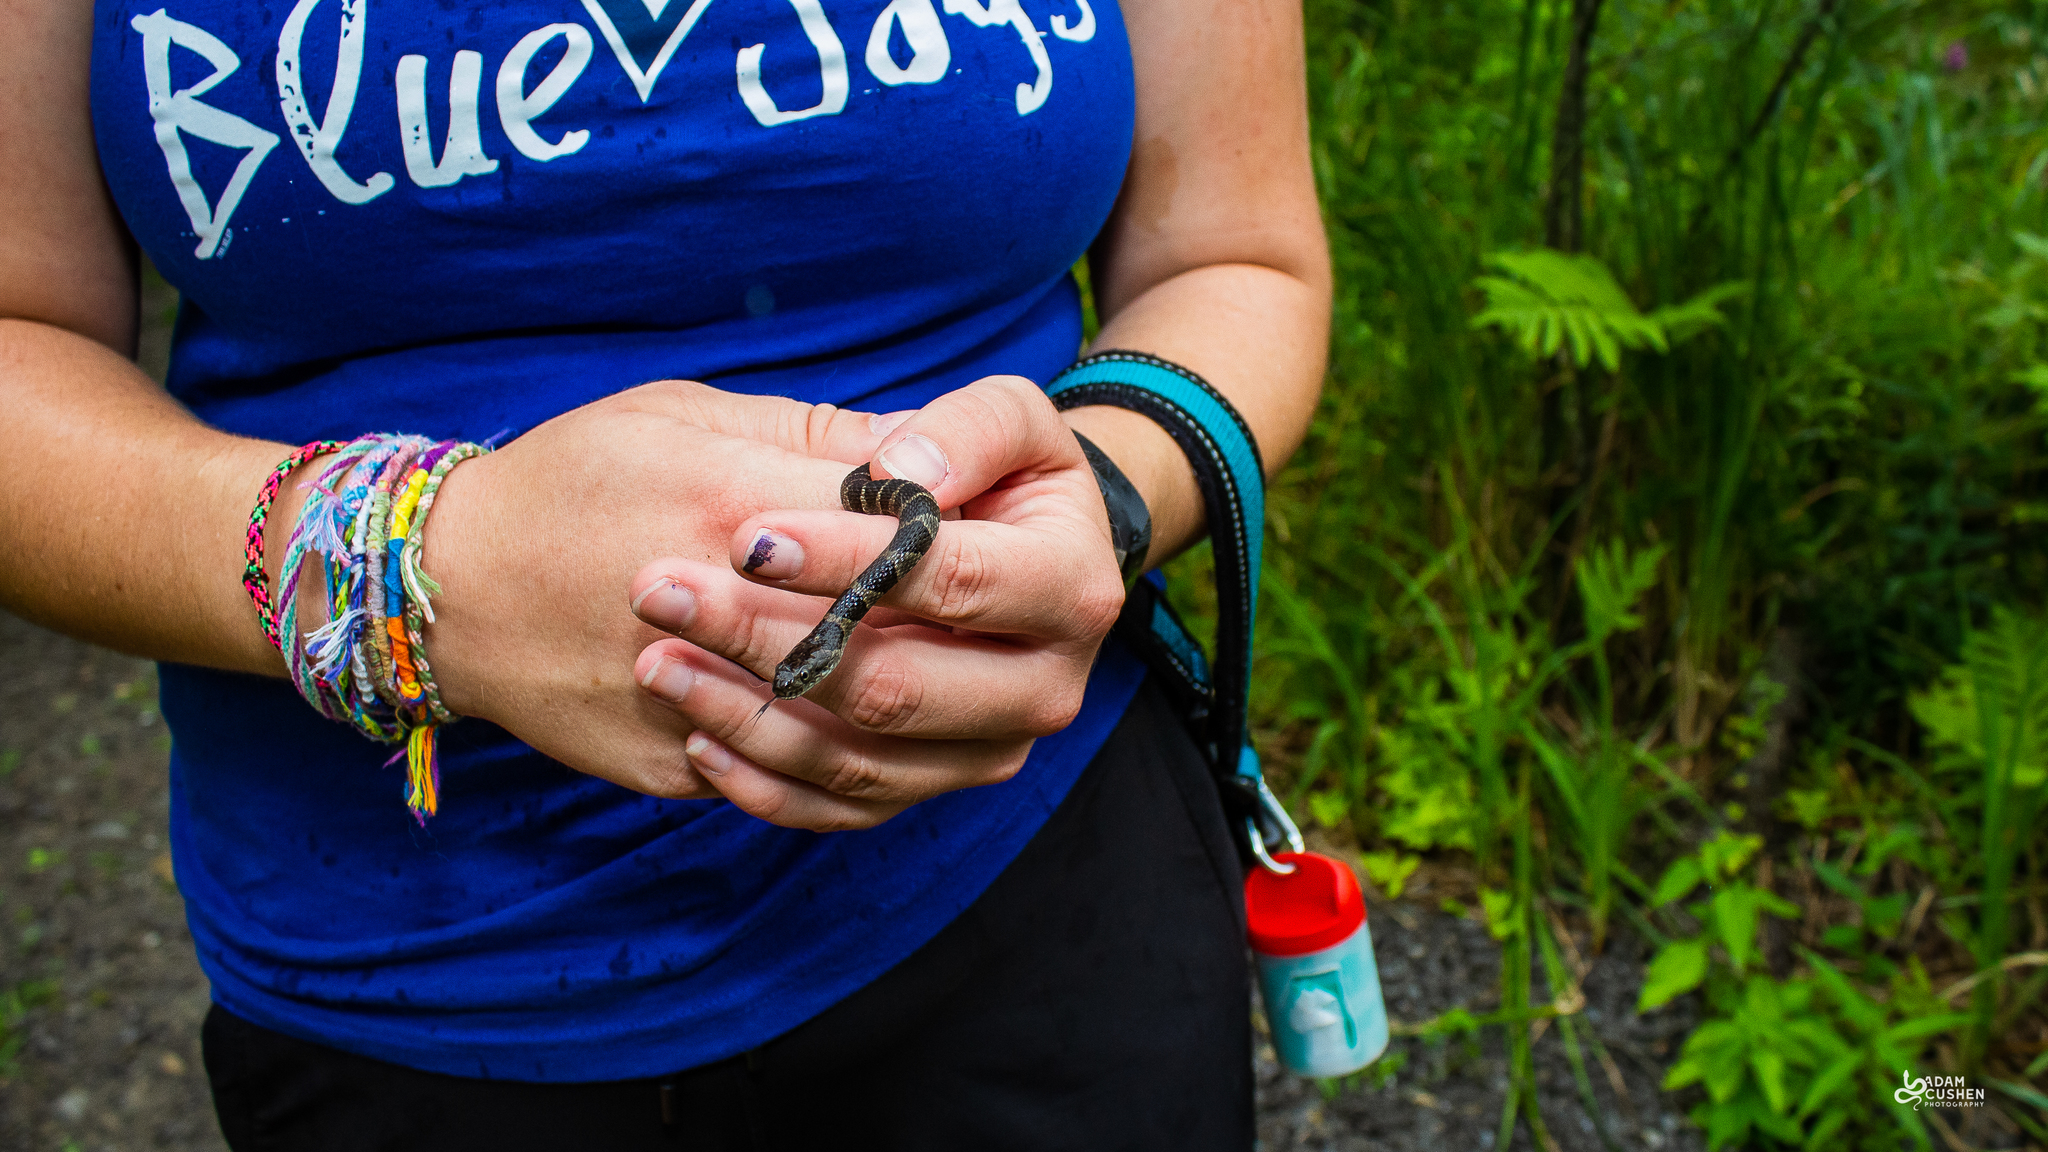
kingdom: Animalia
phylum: Chordata
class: Squamata
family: Colubridae
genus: Nerodia
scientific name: Nerodia sipedon
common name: Northern water snake
